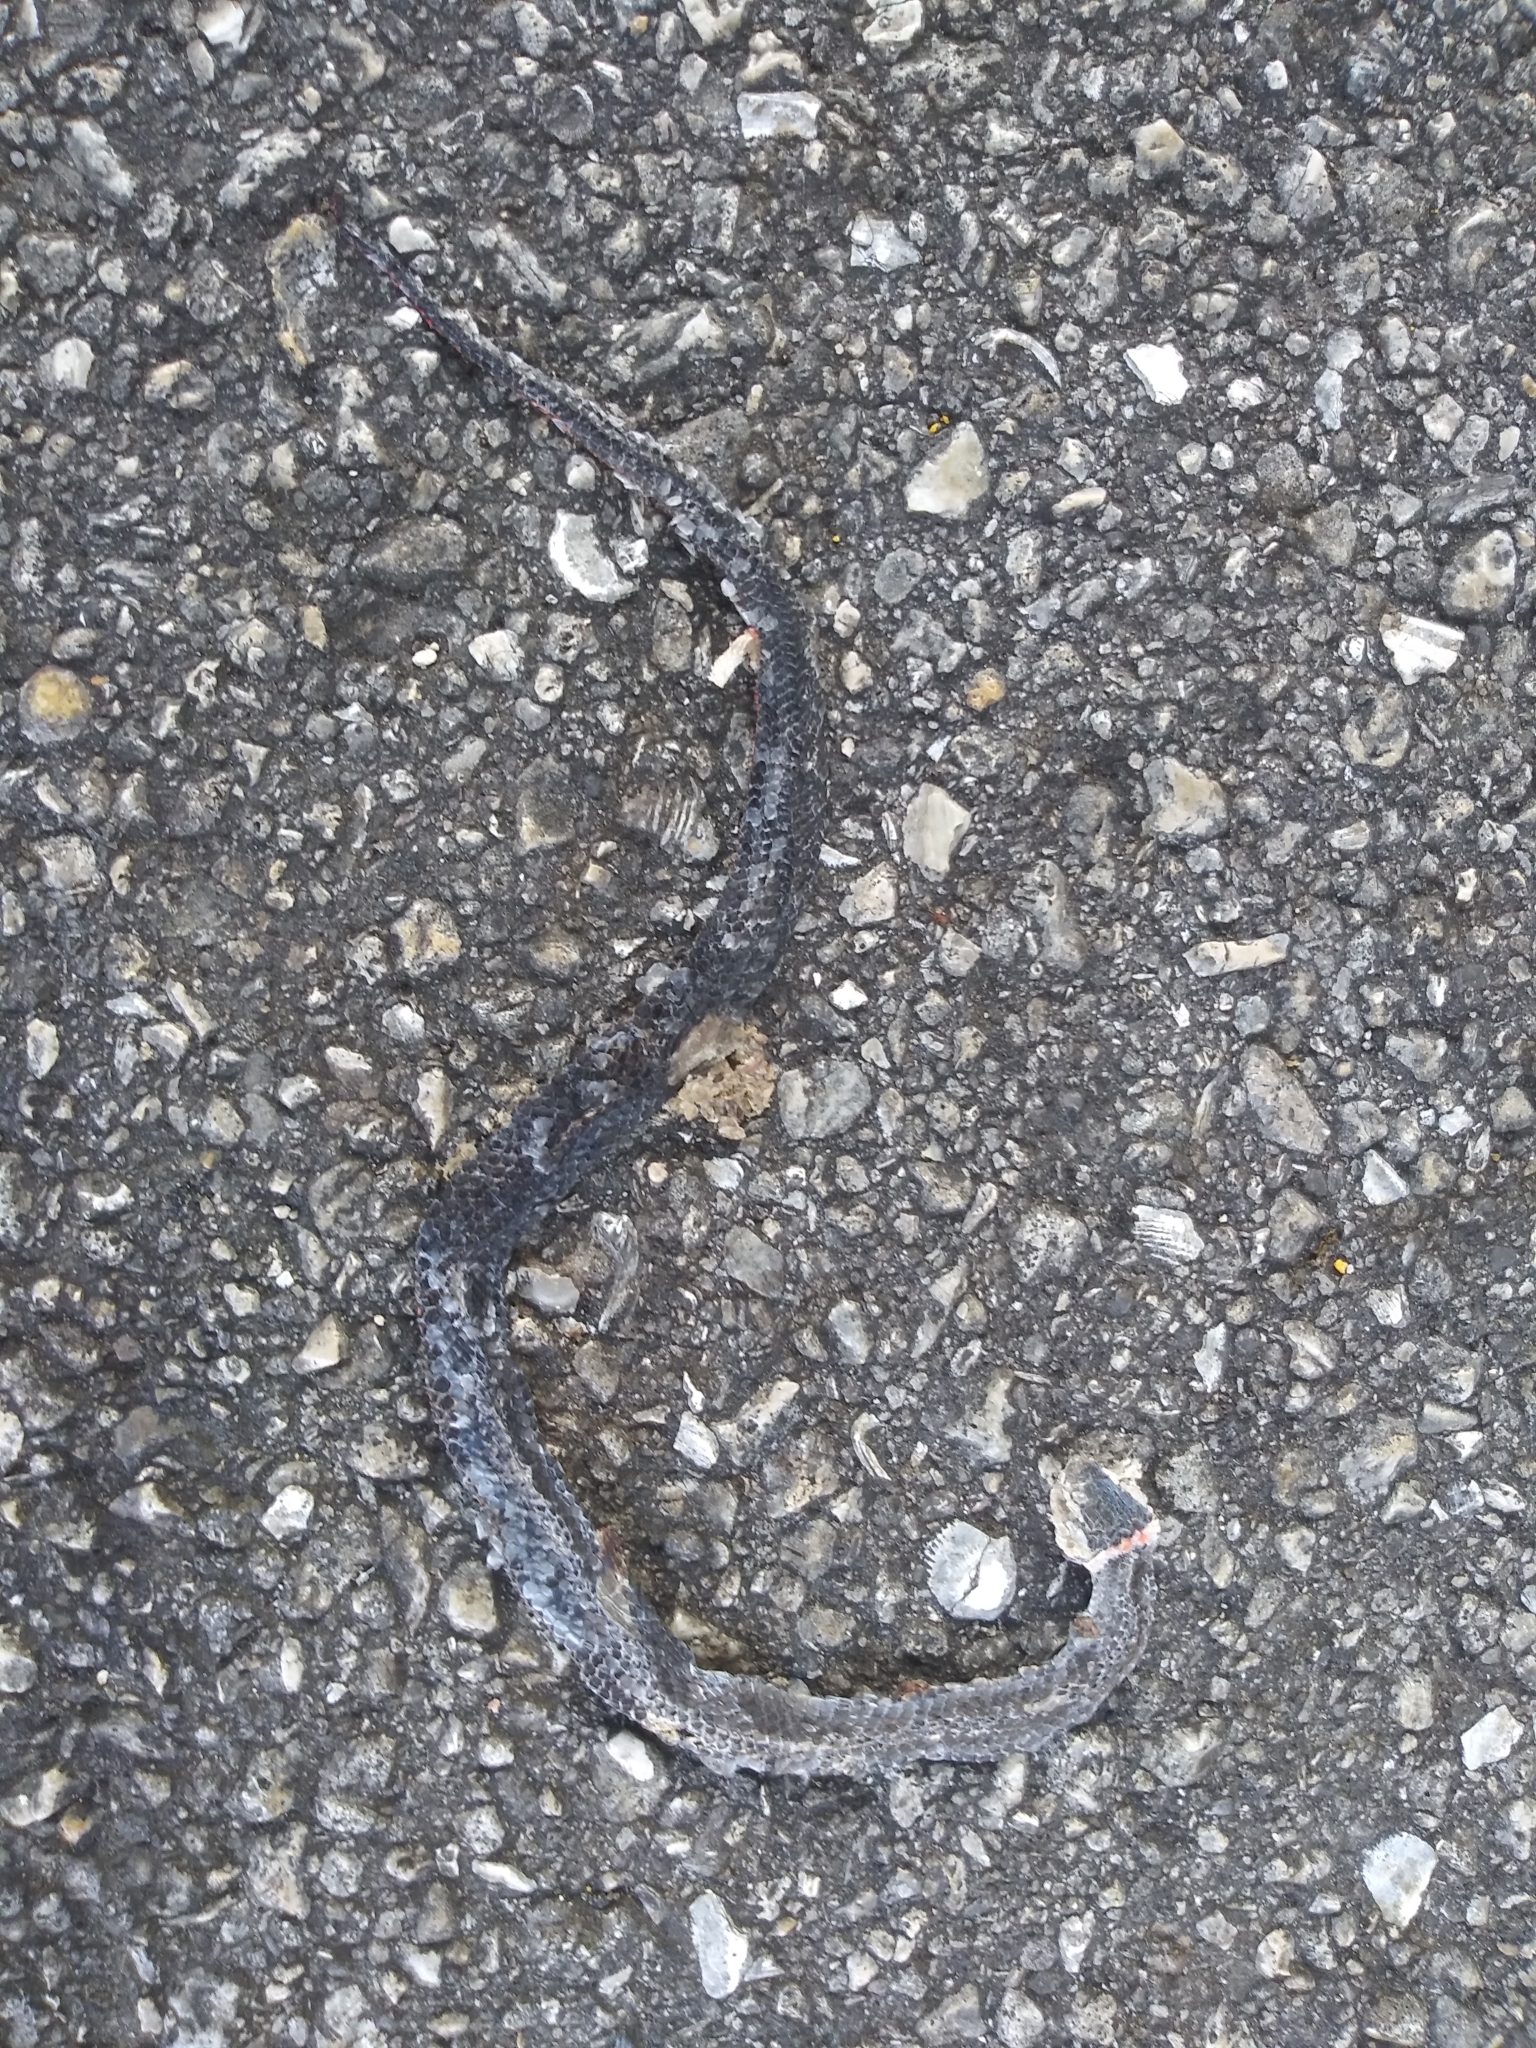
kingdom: Animalia
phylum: Chordata
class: Squamata
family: Colubridae
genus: Diadophis
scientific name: Diadophis punctatus
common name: Ringneck snake
